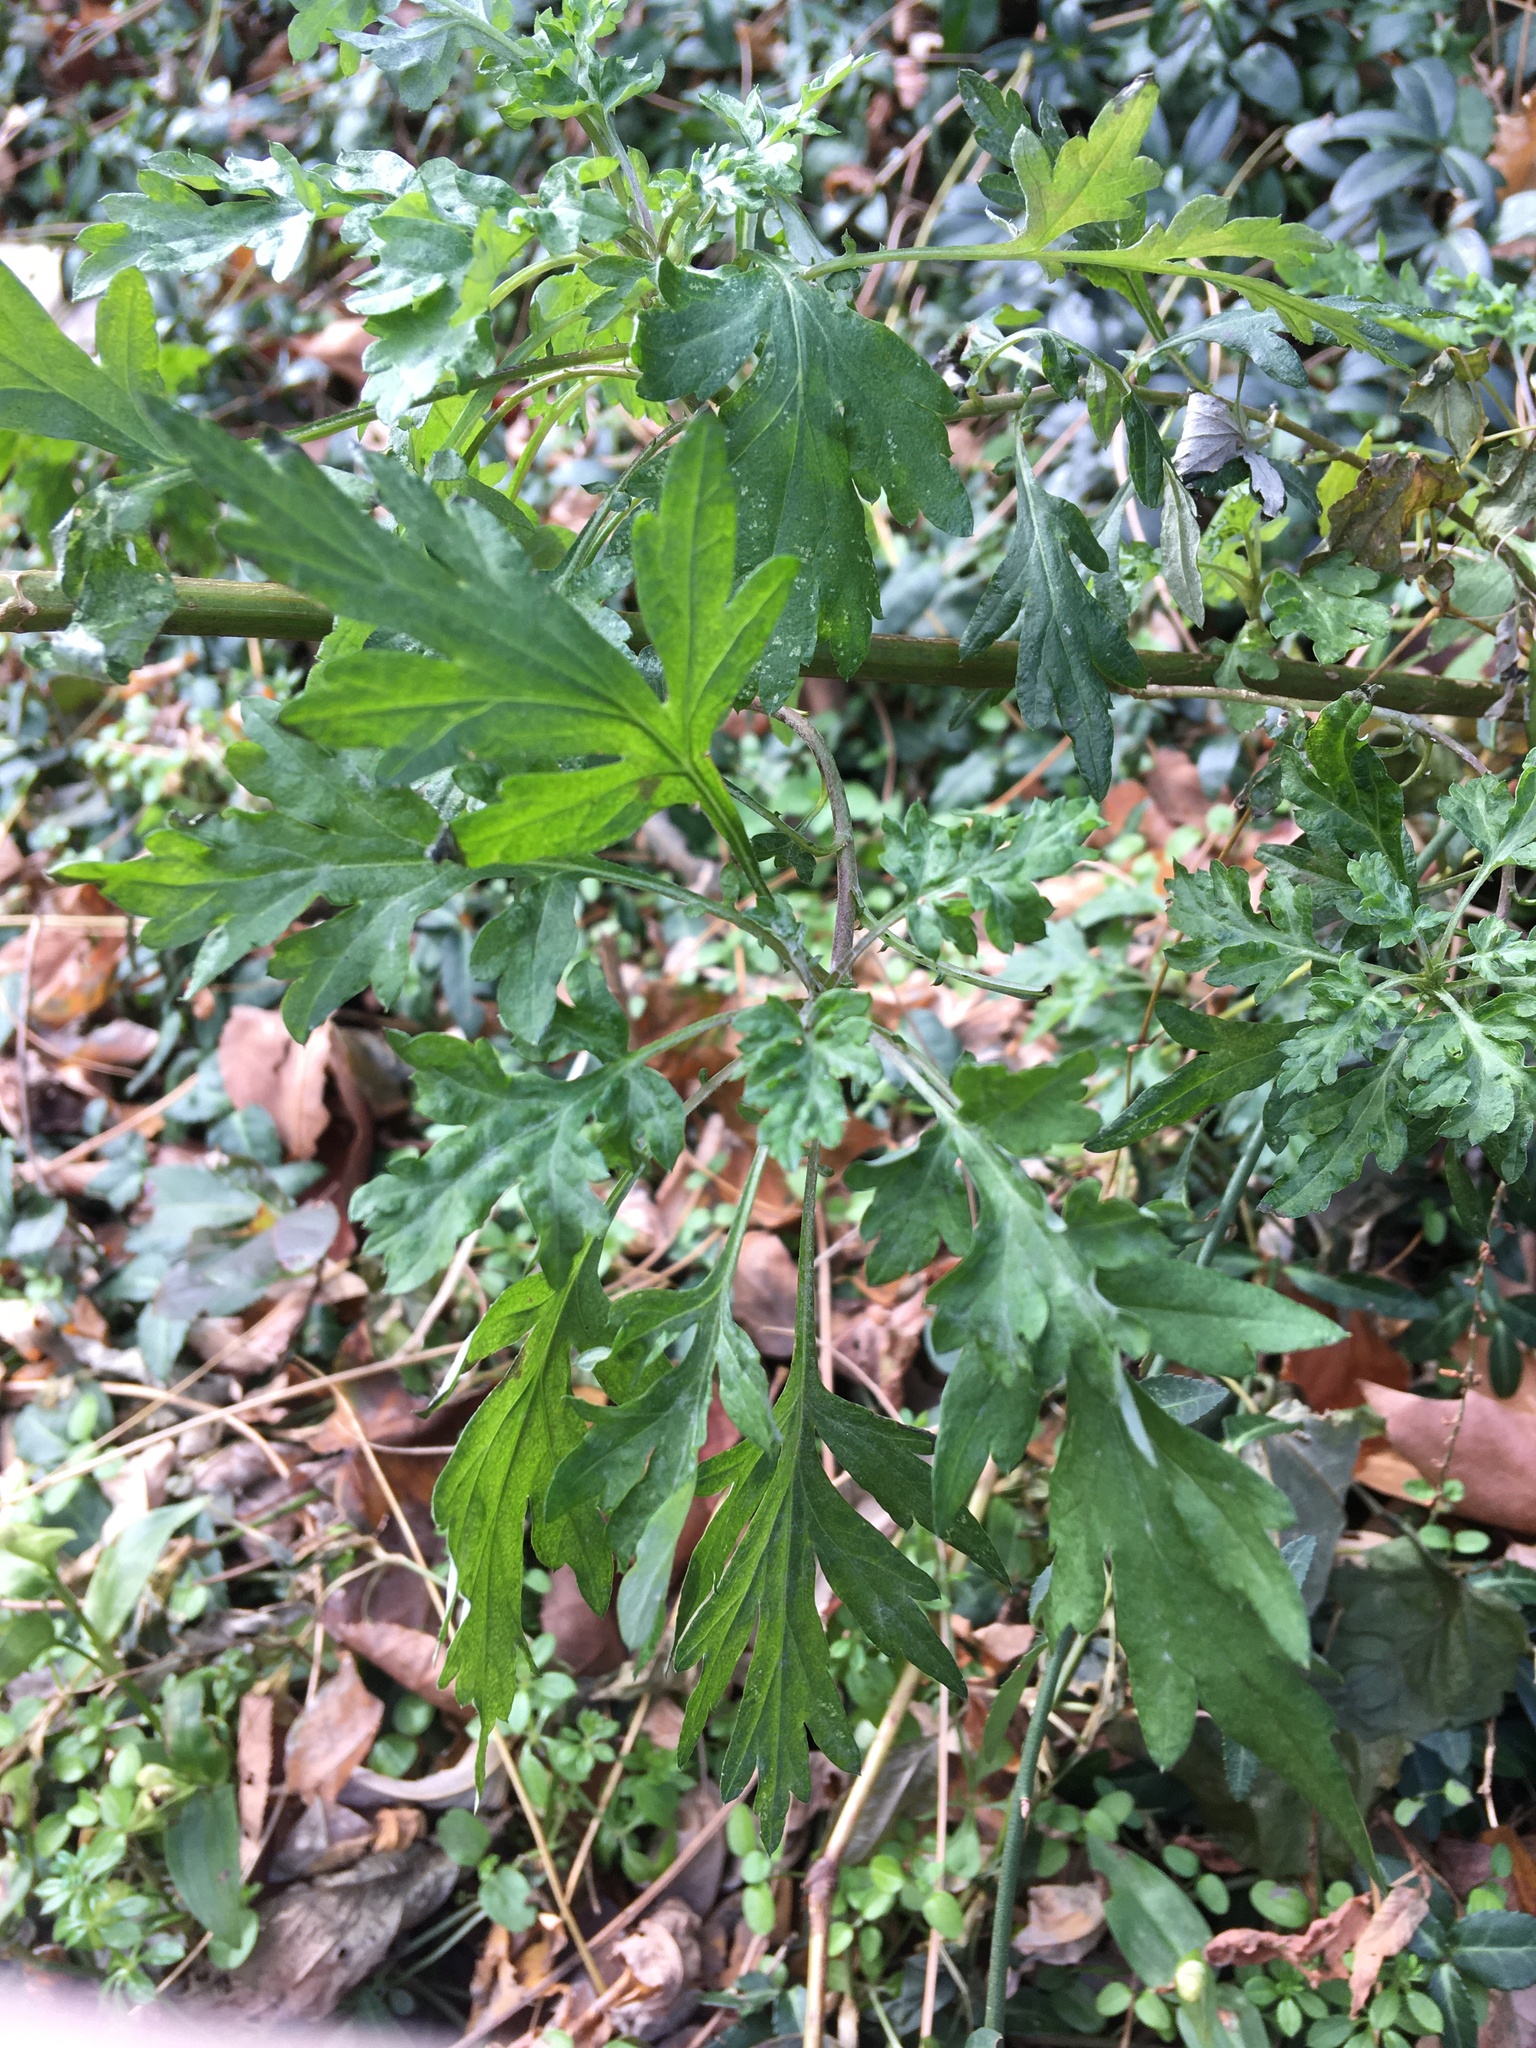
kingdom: Plantae
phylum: Tracheophyta
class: Magnoliopsida
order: Asterales
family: Asteraceae
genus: Artemisia
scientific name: Artemisia vulgaris
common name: Mugwort
